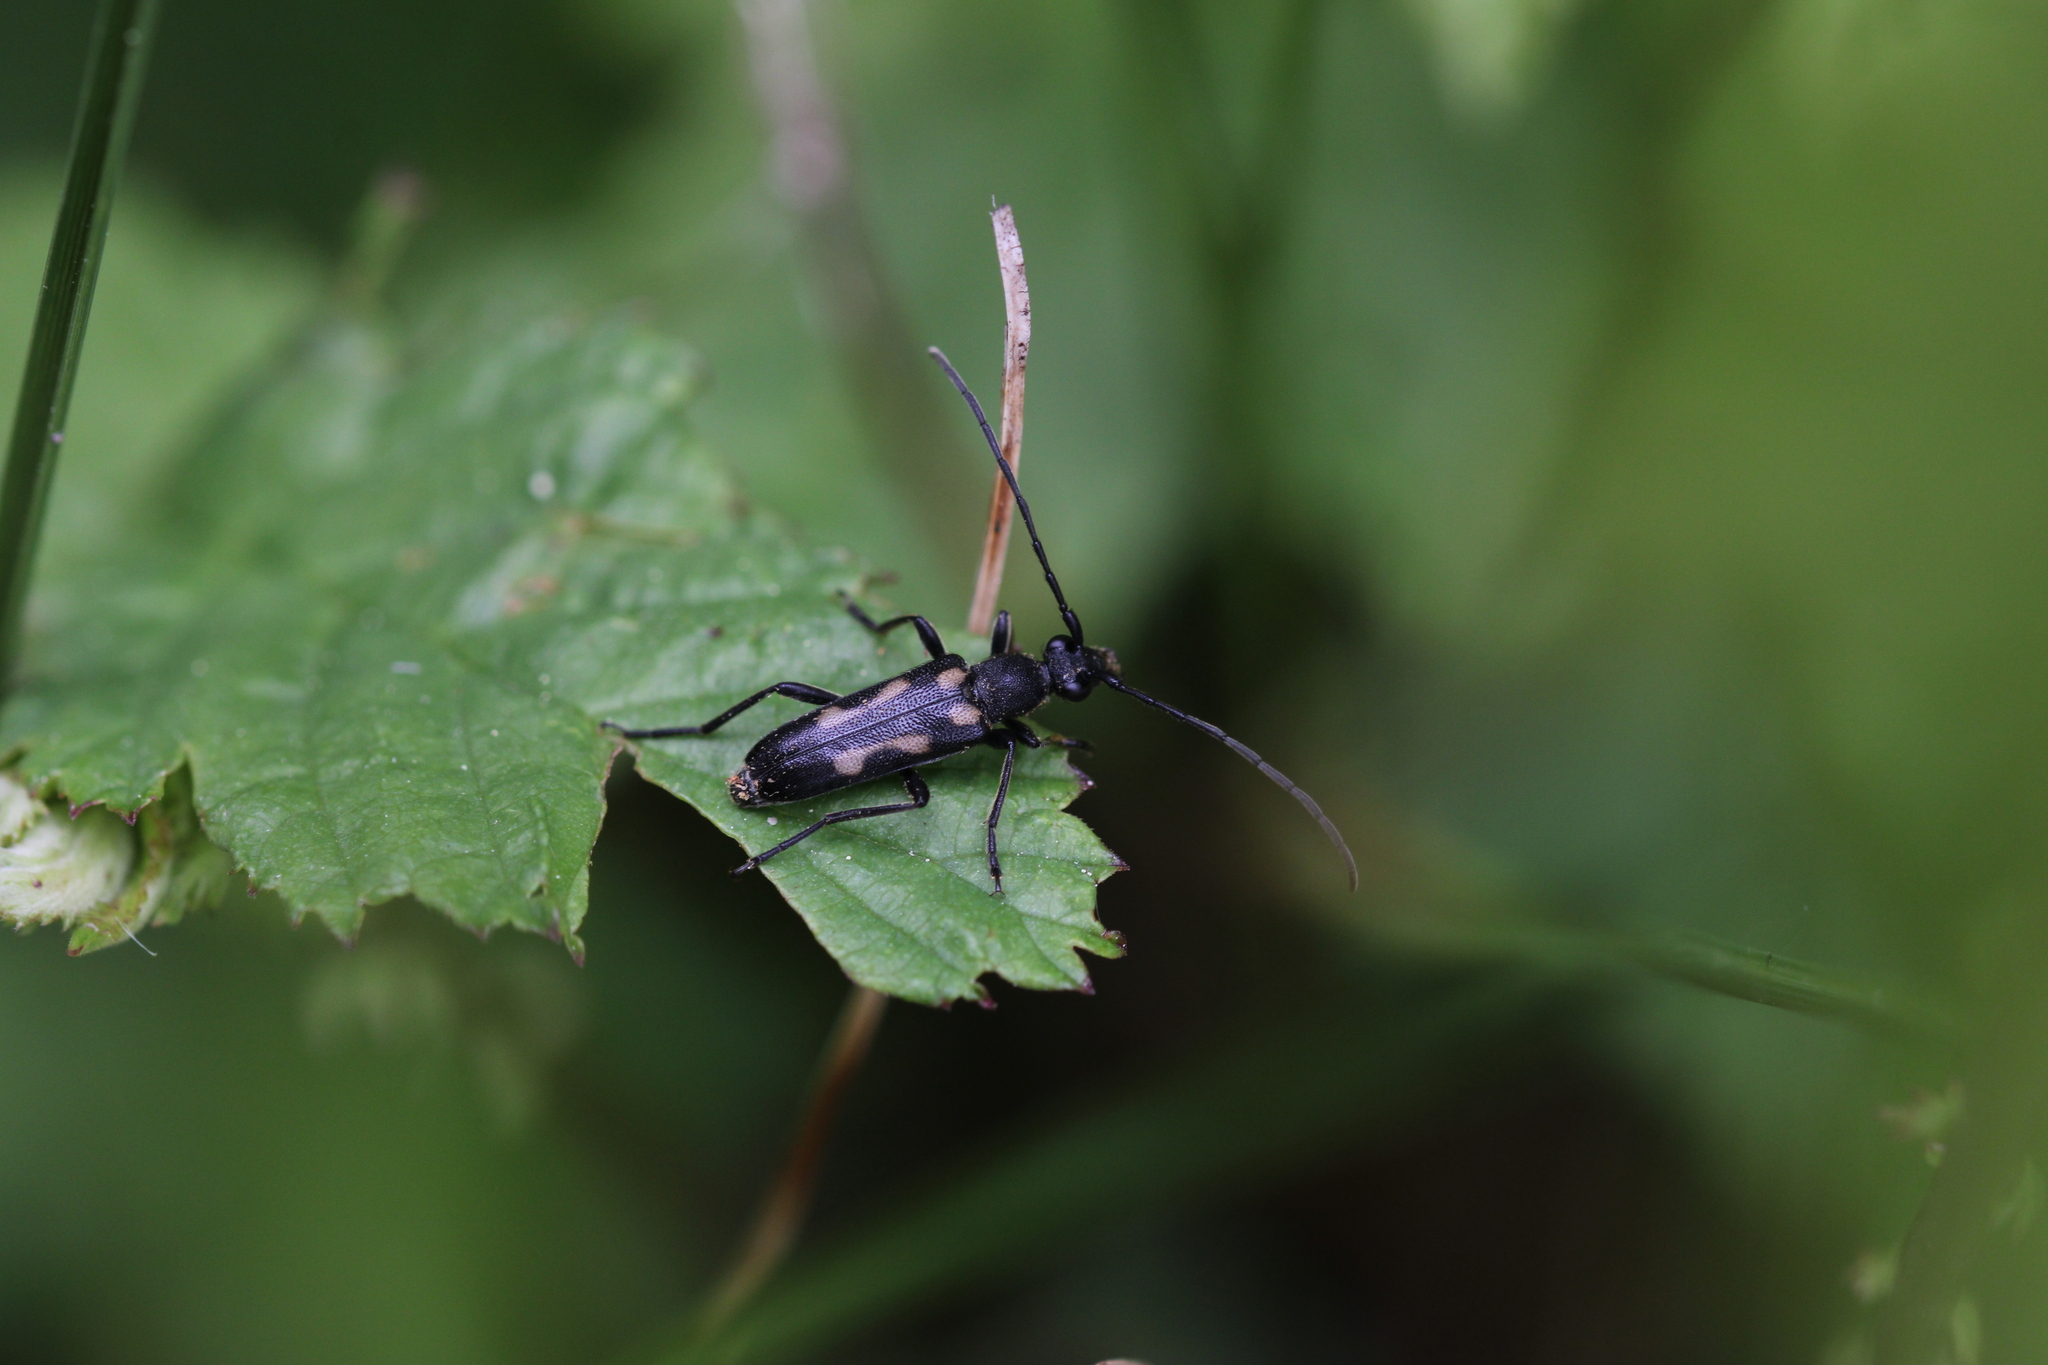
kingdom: Animalia
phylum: Arthropoda
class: Insecta
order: Coleoptera
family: Cerambycidae
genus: Anoplodera
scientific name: Anoplodera sexguttata
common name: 6 spotted longhorn
